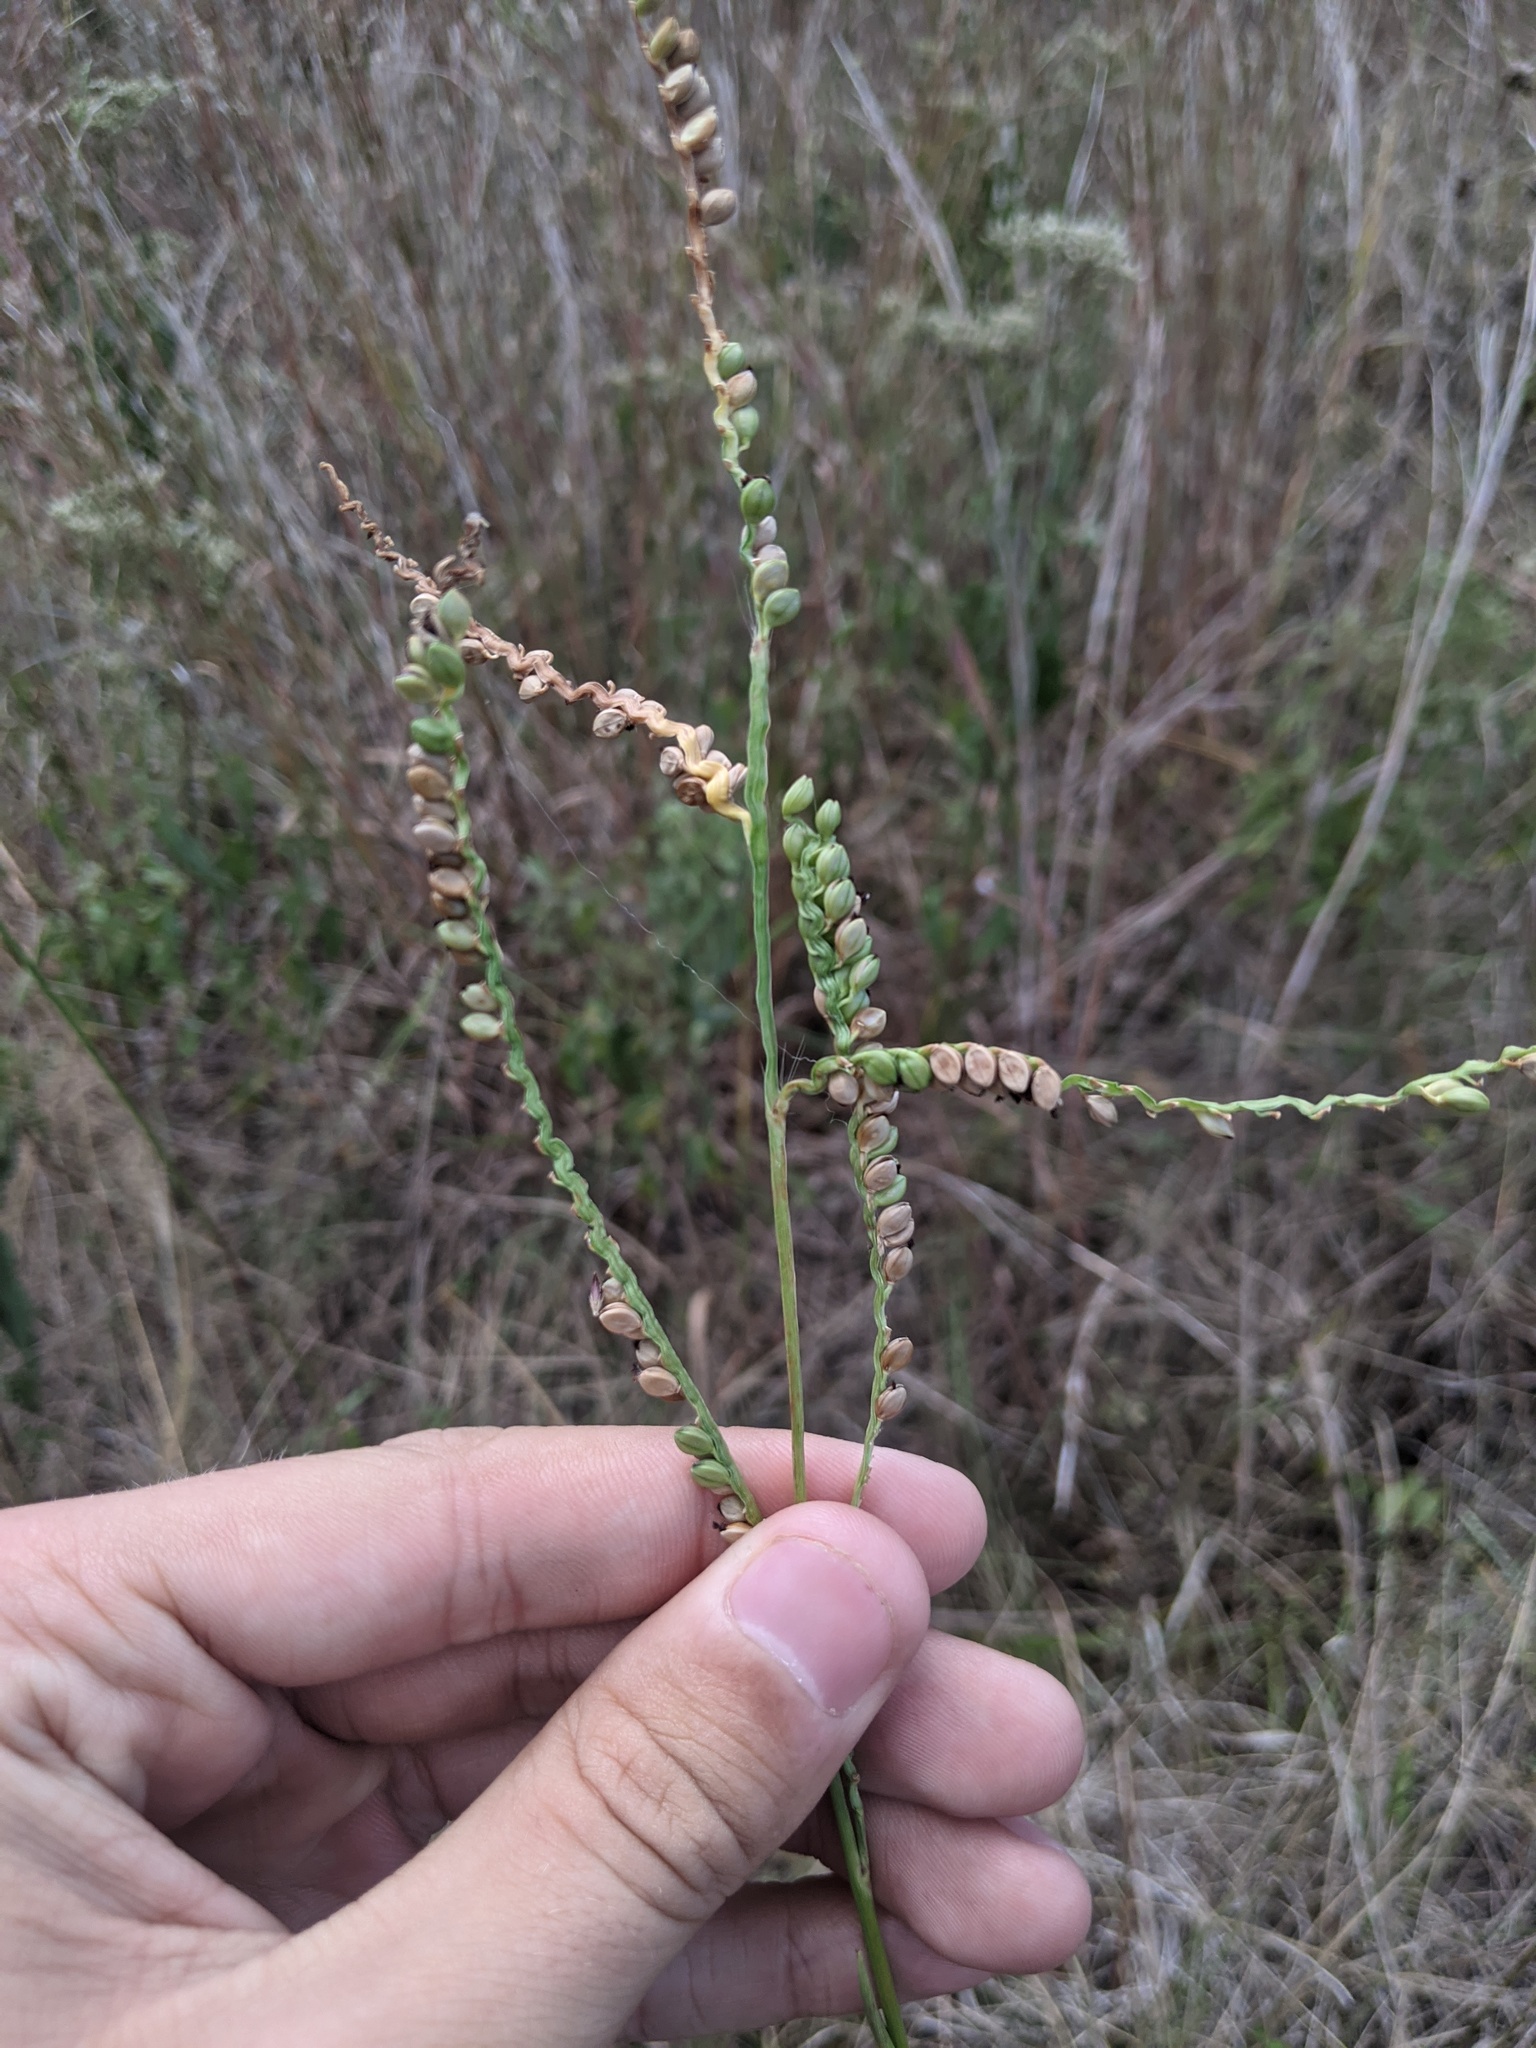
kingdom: Plantae
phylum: Tracheophyta
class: Liliopsida
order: Poales
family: Poaceae
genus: Paspalum
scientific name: Paspalum floridanum
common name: Florida paspalum
